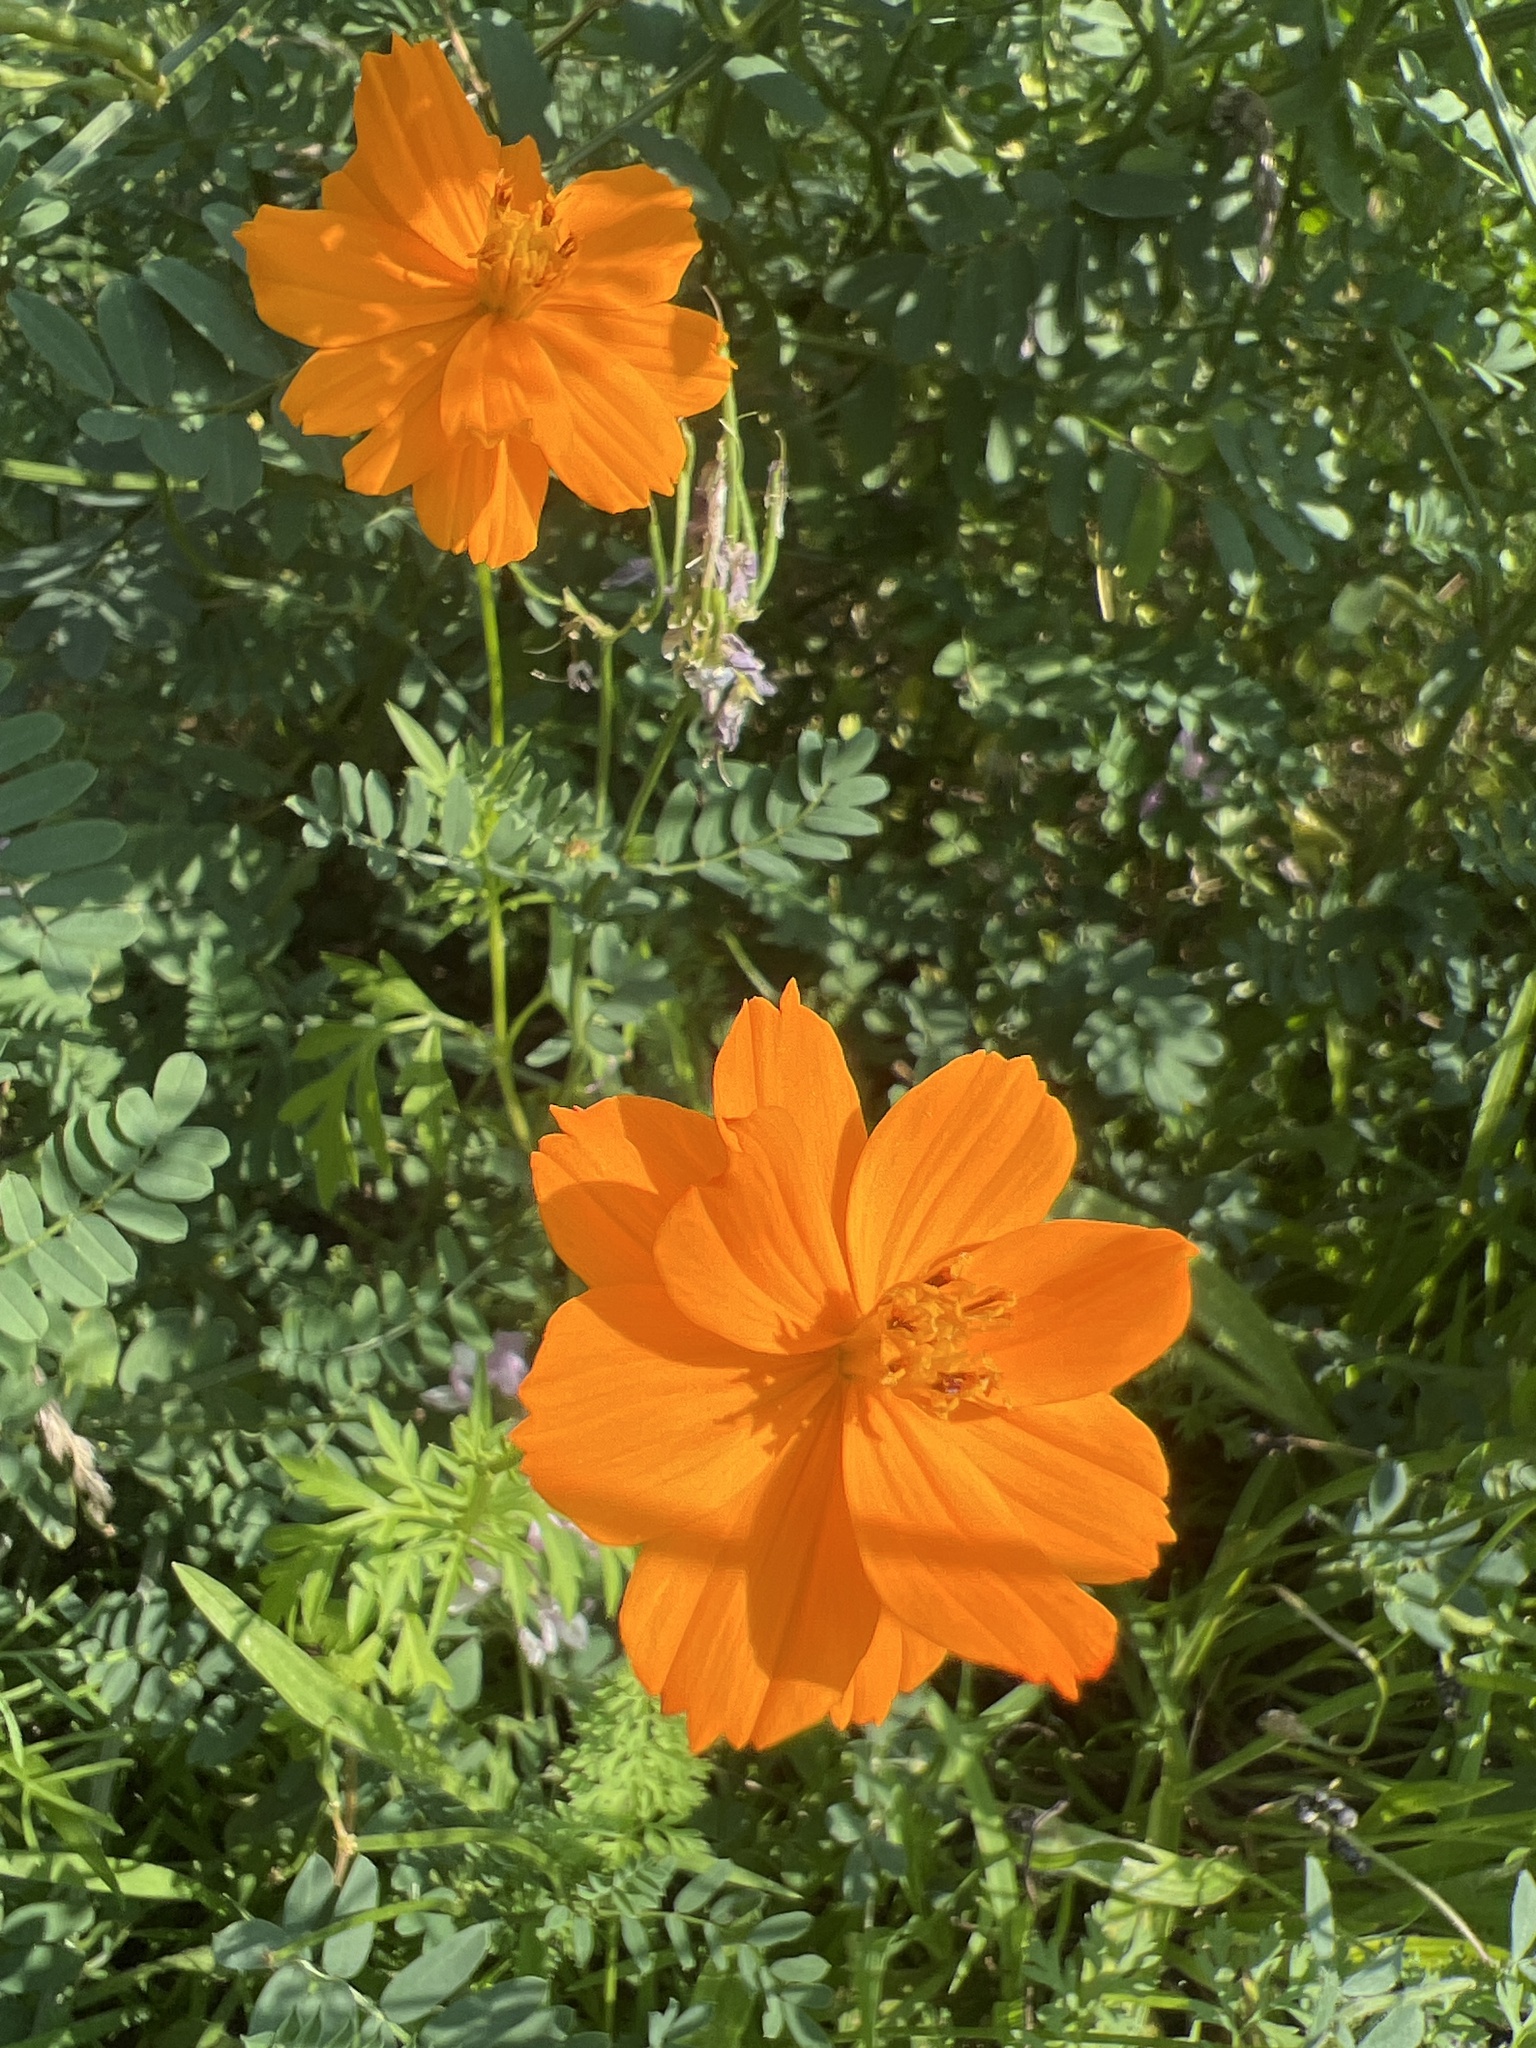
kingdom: Plantae
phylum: Tracheophyta
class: Magnoliopsida
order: Asterales
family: Asteraceae
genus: Cosmos
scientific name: Cosmos sulphureus
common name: Sulphur cosmos
